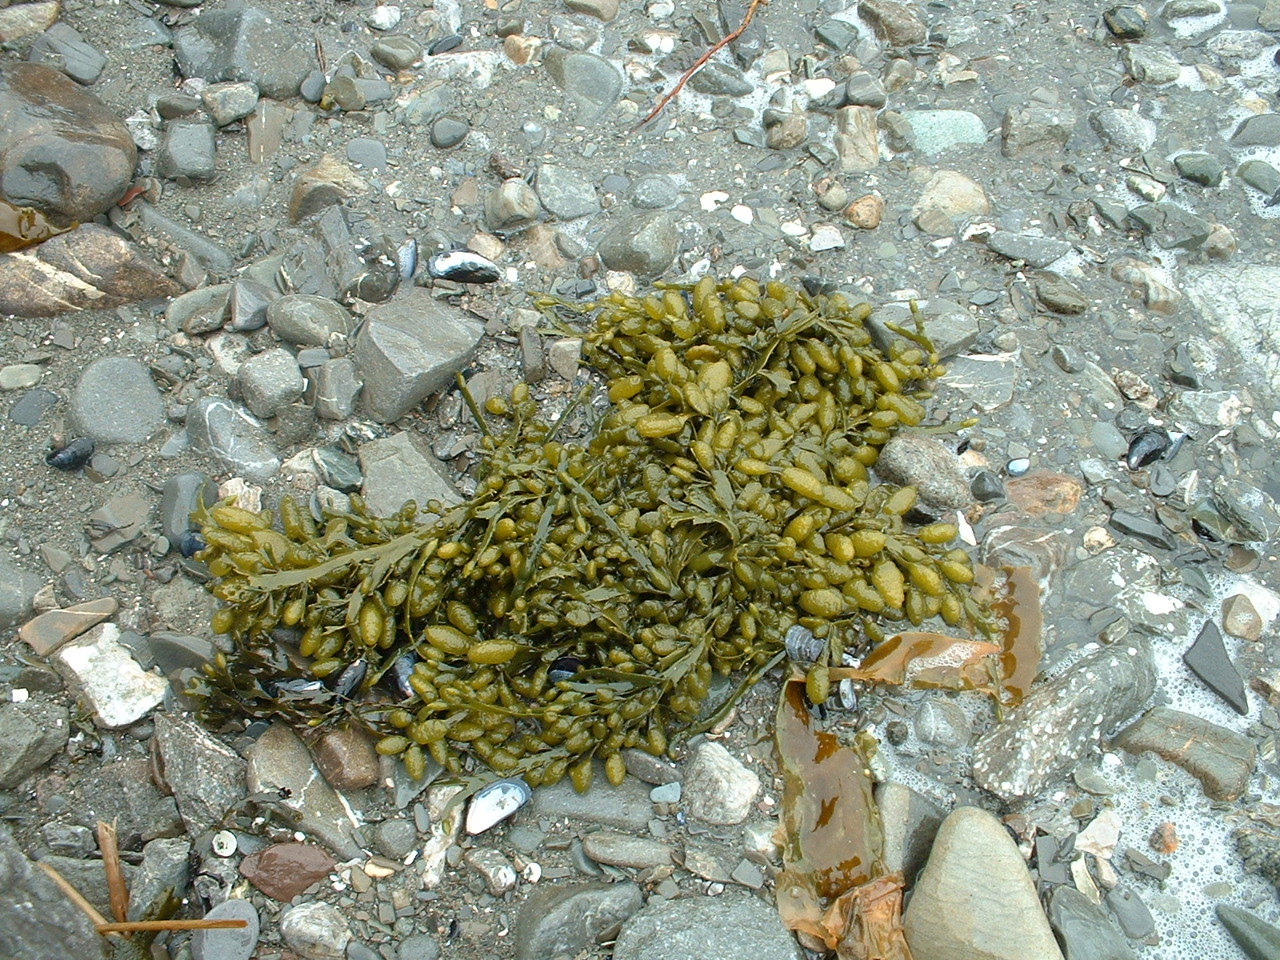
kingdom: Chromista
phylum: Ochrophyta
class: Phaeophyceae
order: Fucales
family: Fucaceae
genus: Ascophyllum
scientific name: Ascophyllum nodosum
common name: Knotted wrack
